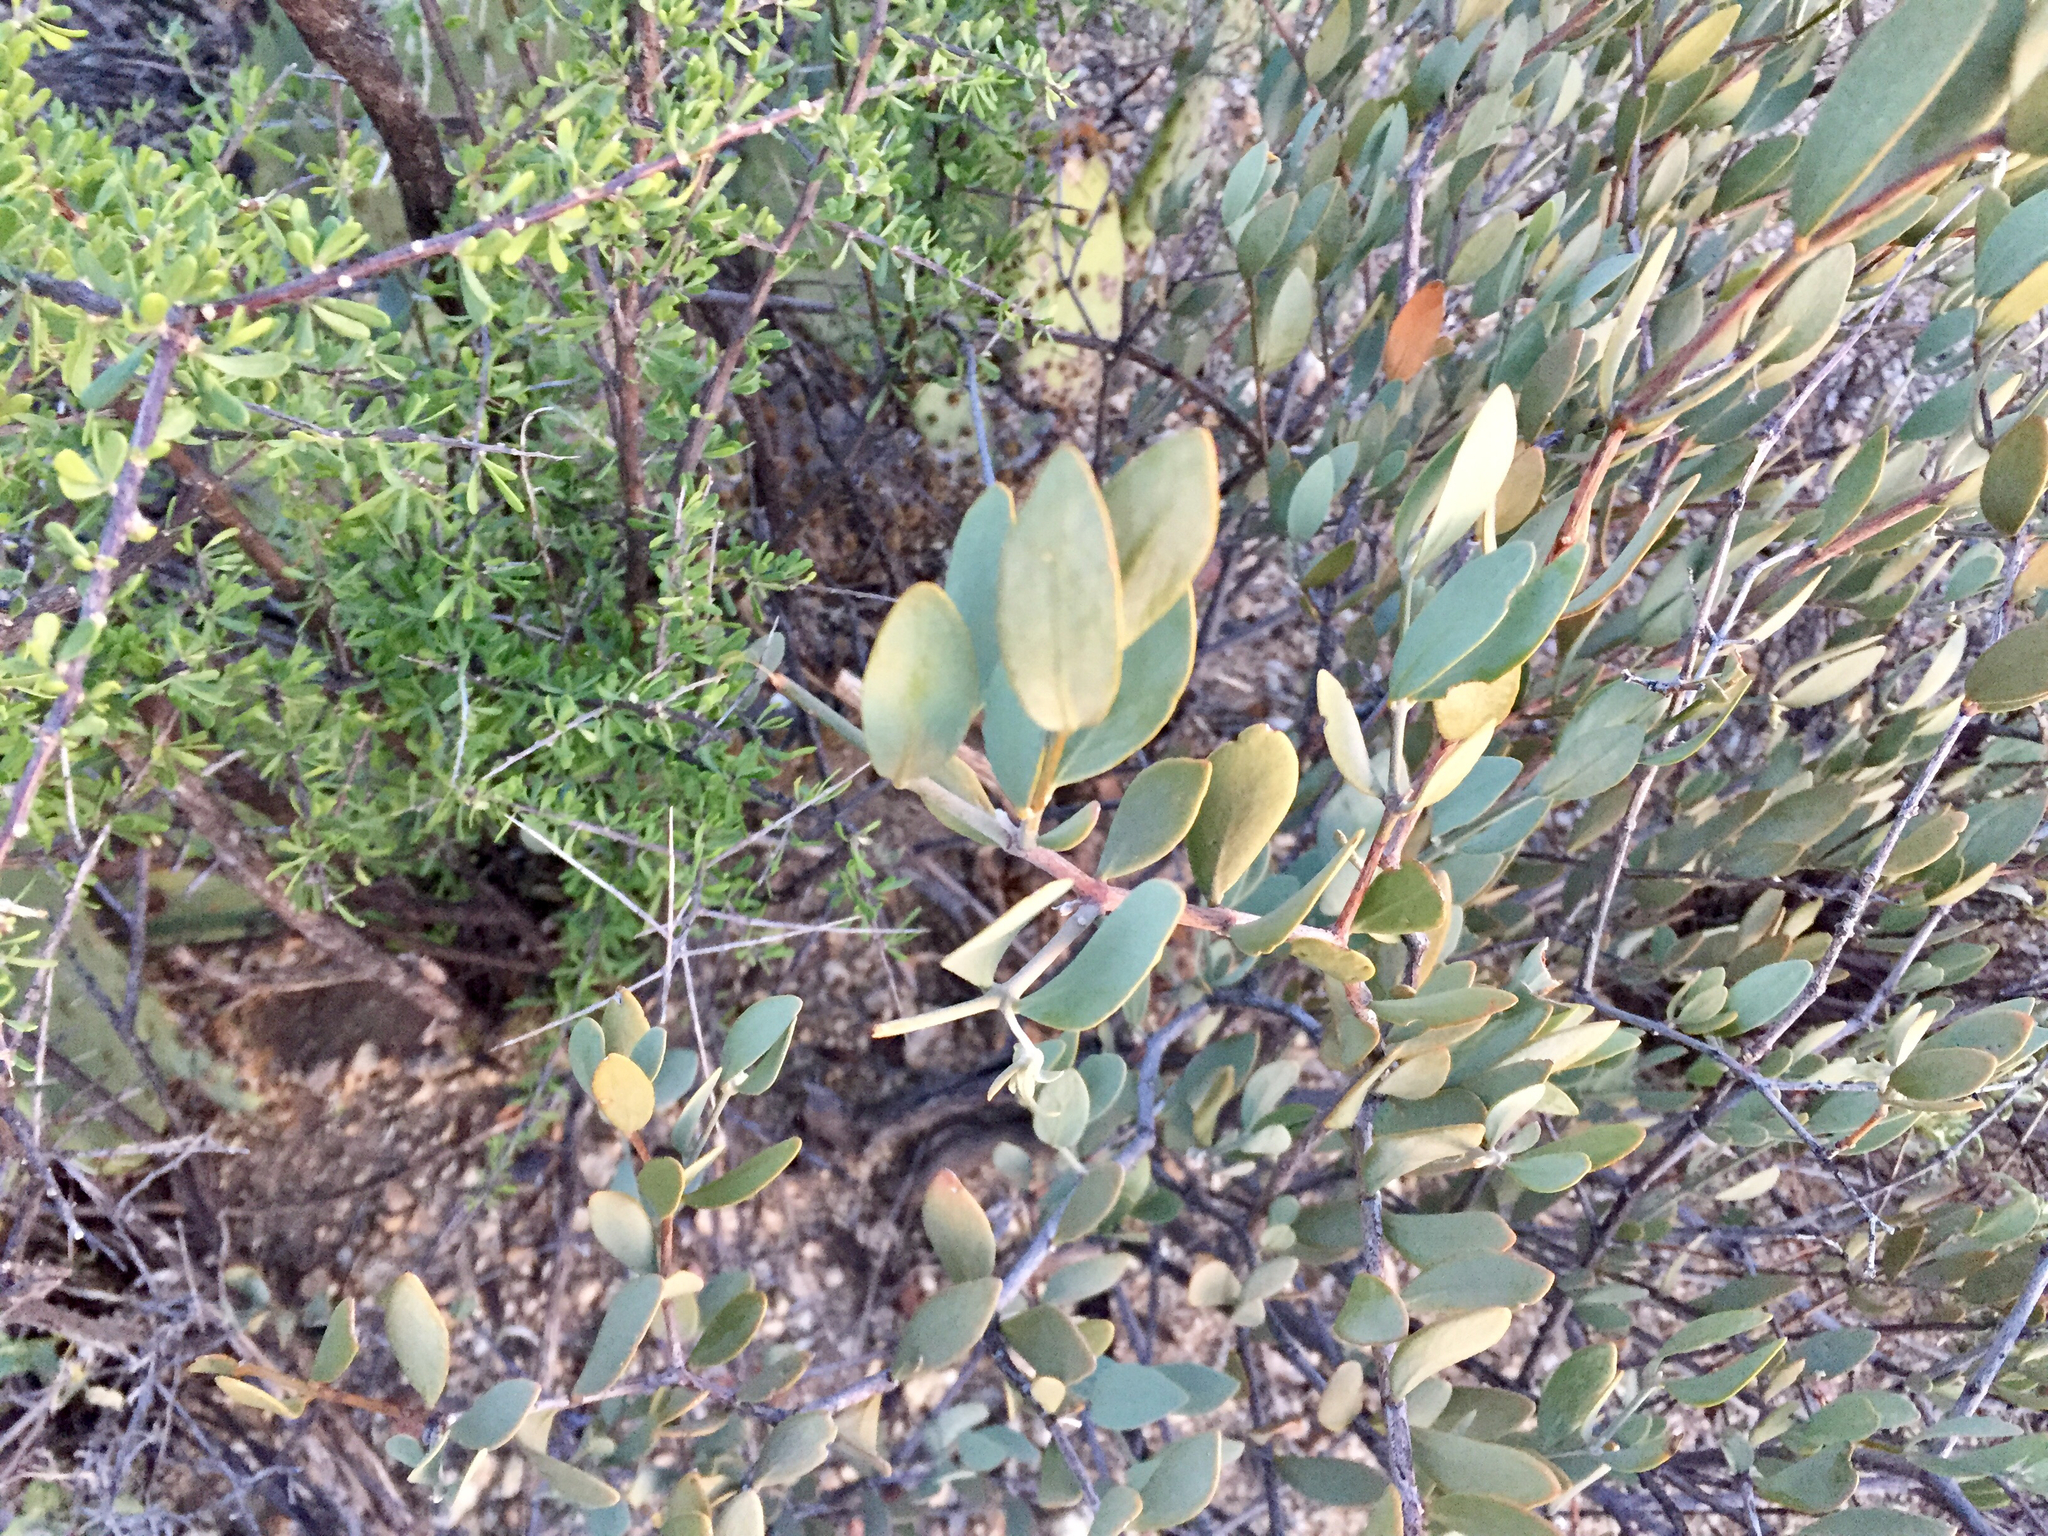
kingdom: Plantae
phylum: Tracheophyta
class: Magnoliopsida
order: Caryophyllales
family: Simmondsiaceae
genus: Simmondsia
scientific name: Simmondsia chinensis
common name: Jojoba
